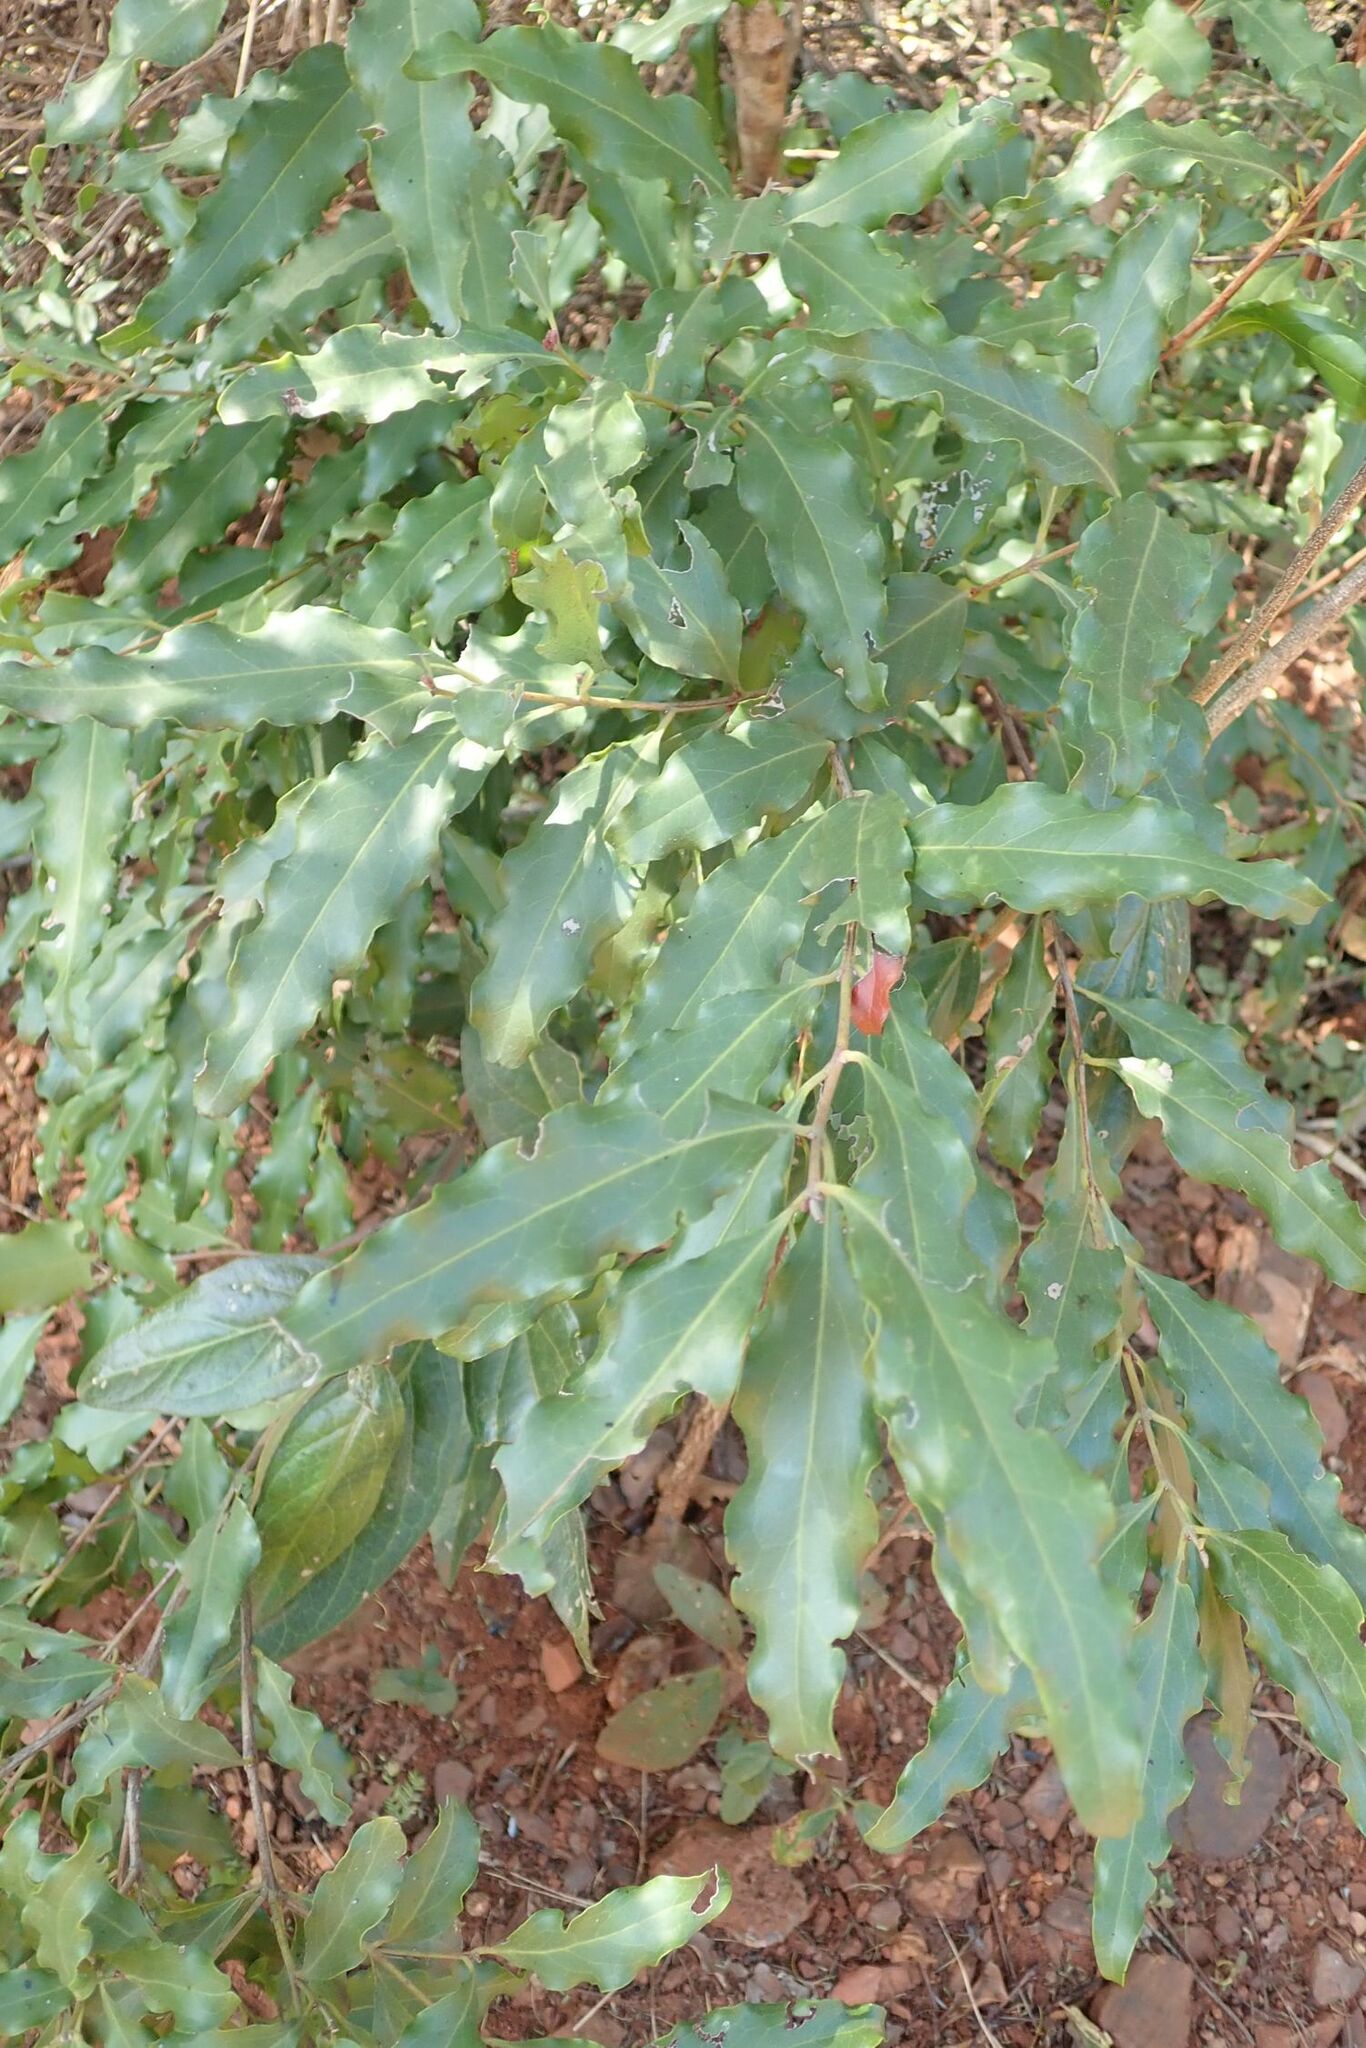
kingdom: Plantae
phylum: Tracheophyta
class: Magnoliopsida
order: Ericales
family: Ebenaceae
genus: Euclea
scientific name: Euclea divinorum
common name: Diamond-leaved euclea
